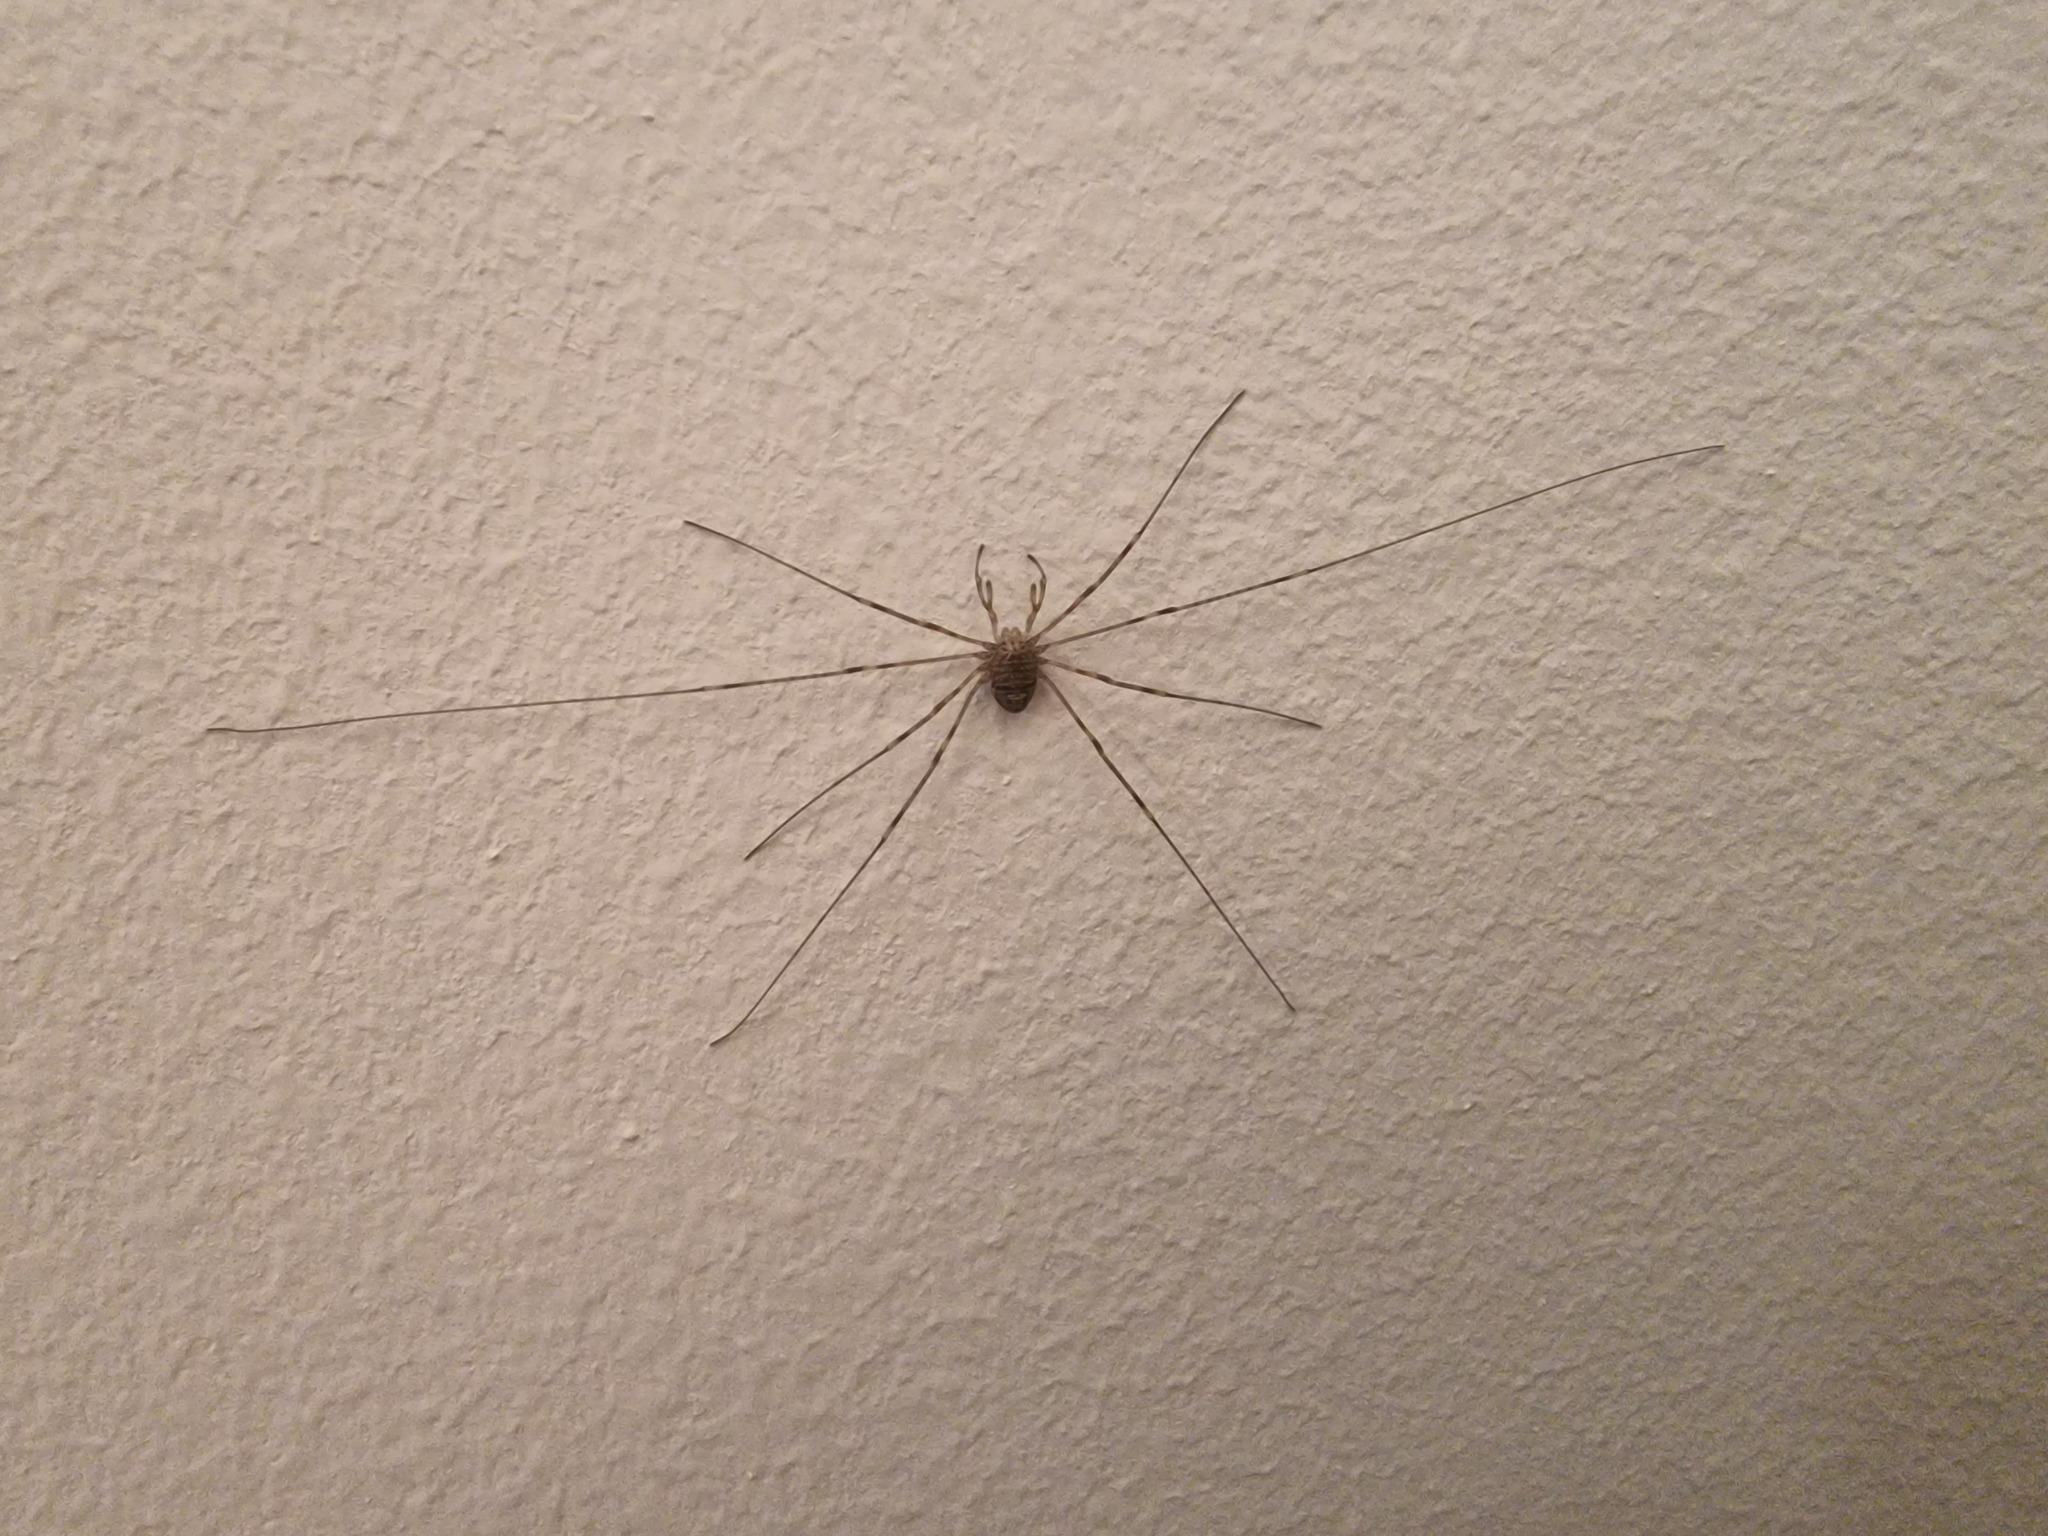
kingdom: Animalia
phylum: Arthropoda
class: Arachnida
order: Opiliones
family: Phalangiidae
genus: Dicranopalpus
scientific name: Dicranopalpus ramosus
